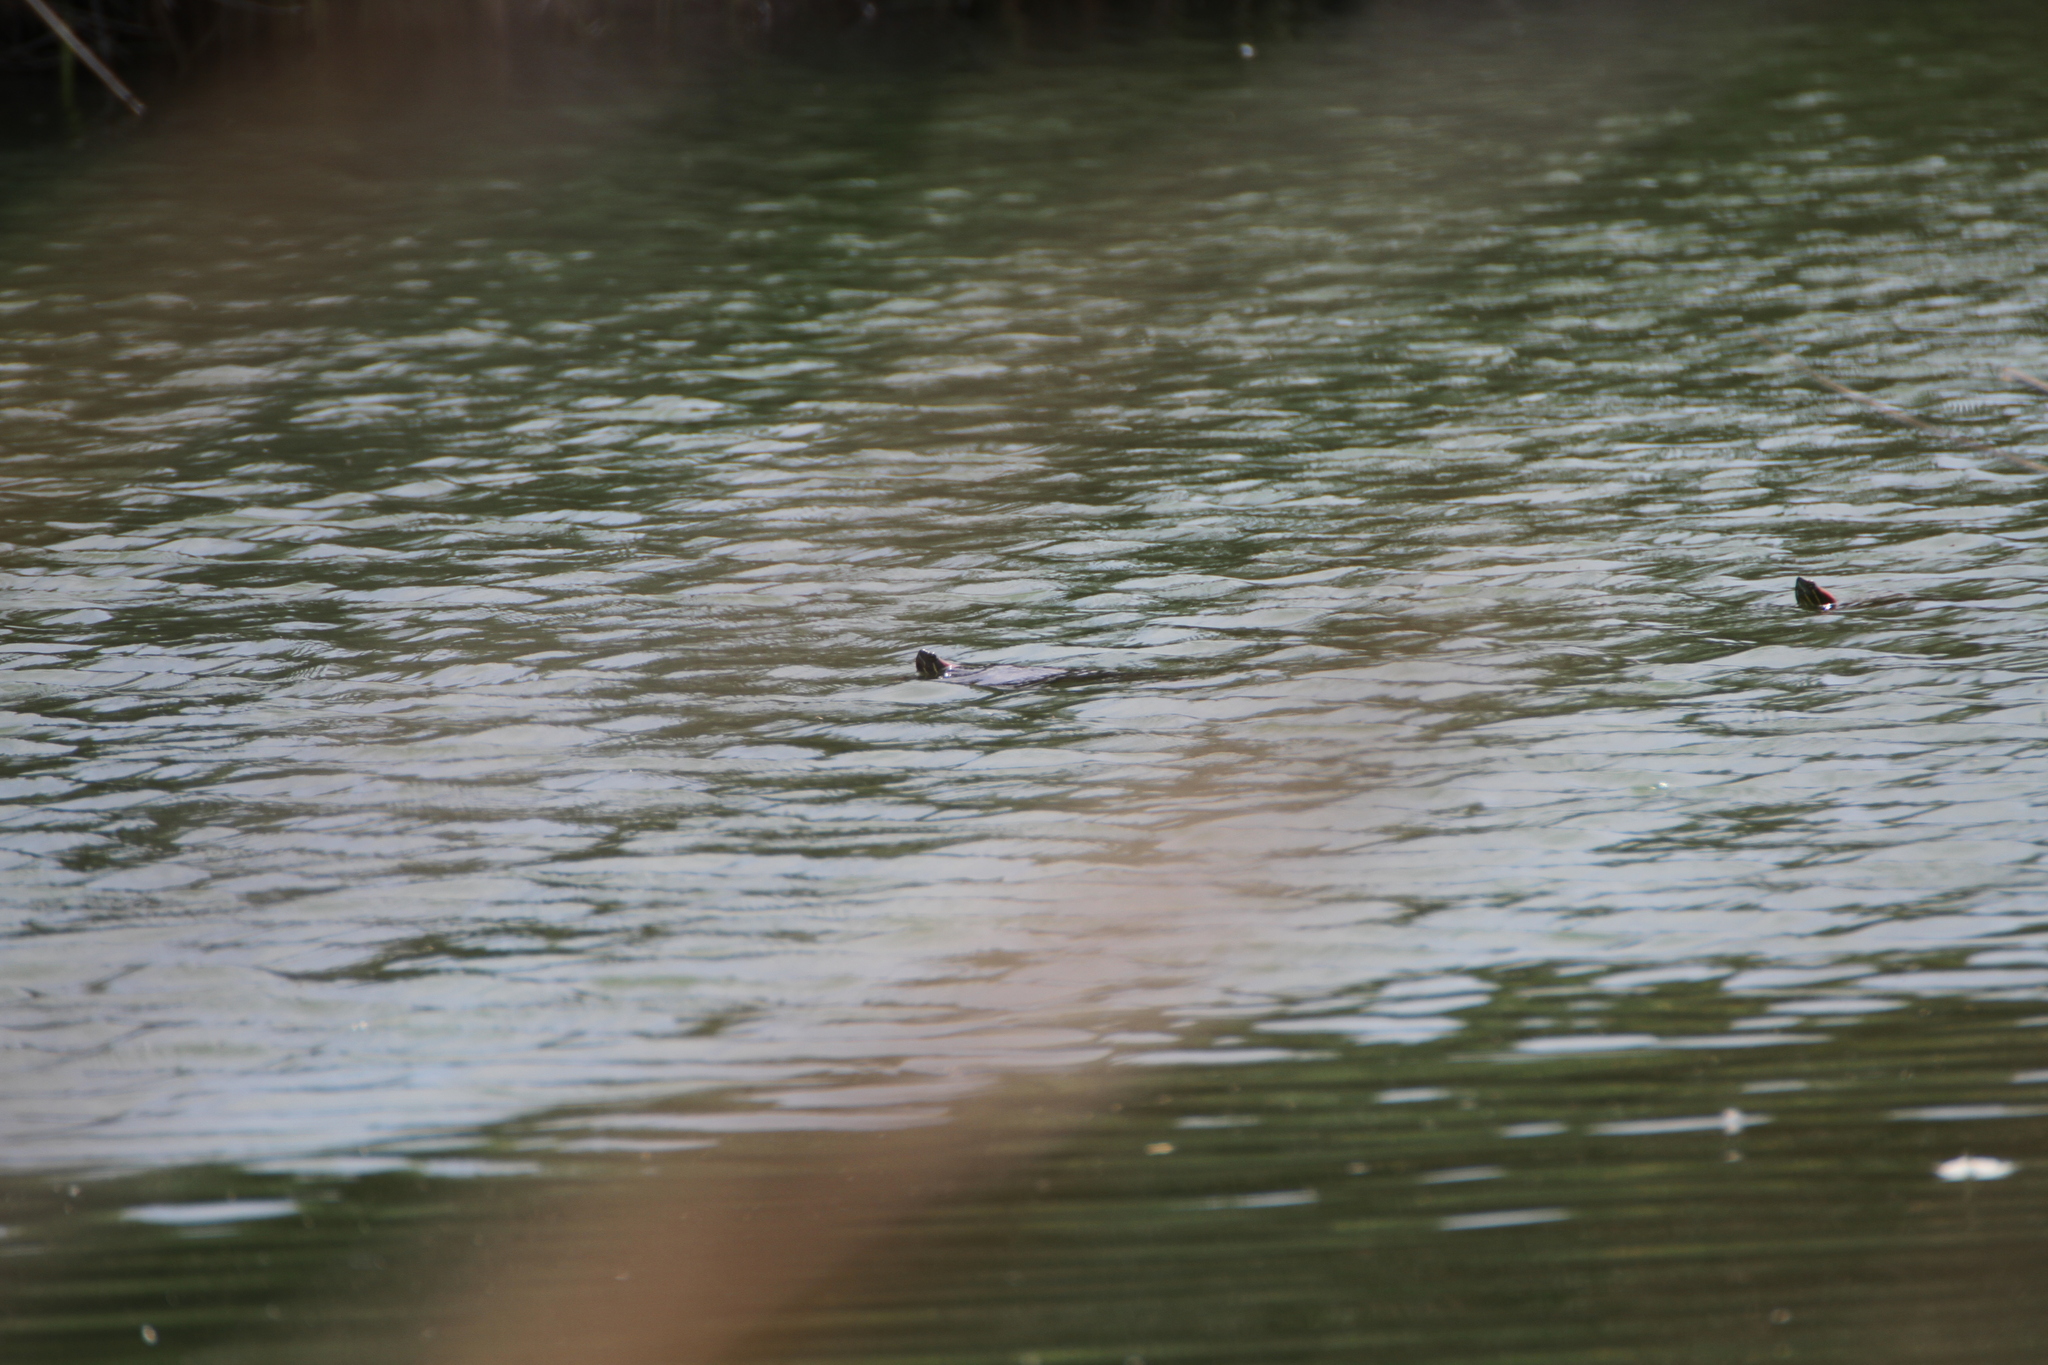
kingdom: Animalia
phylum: Chordata
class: Testudines
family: Emydidae
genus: Trachemys
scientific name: Trachemys scripta
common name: Slider
